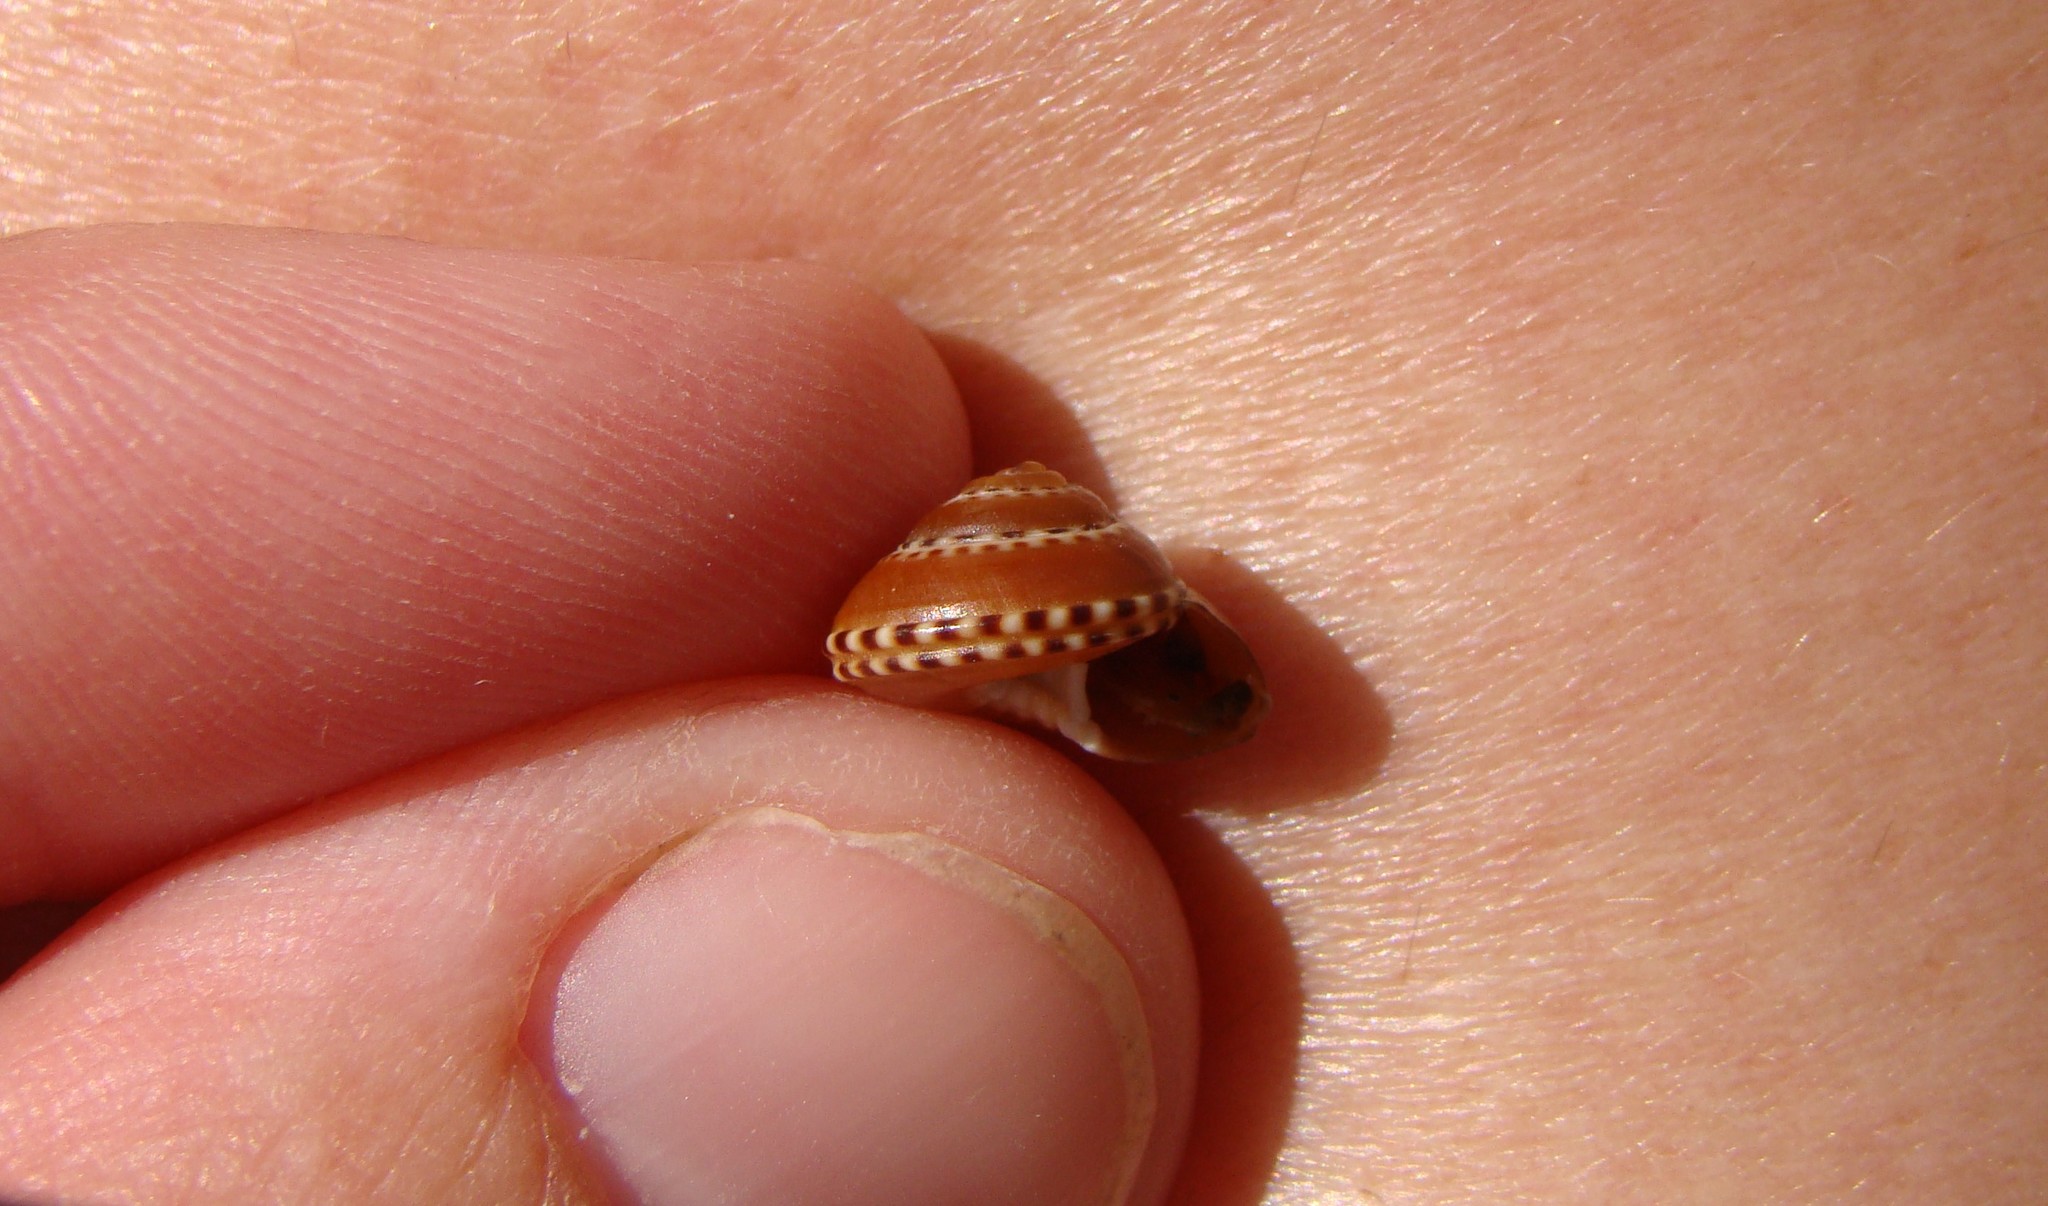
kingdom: Animalia
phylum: Mollusca
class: Gastropoda
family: Architectonicidae
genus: Philippia
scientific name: Philippia lutea
